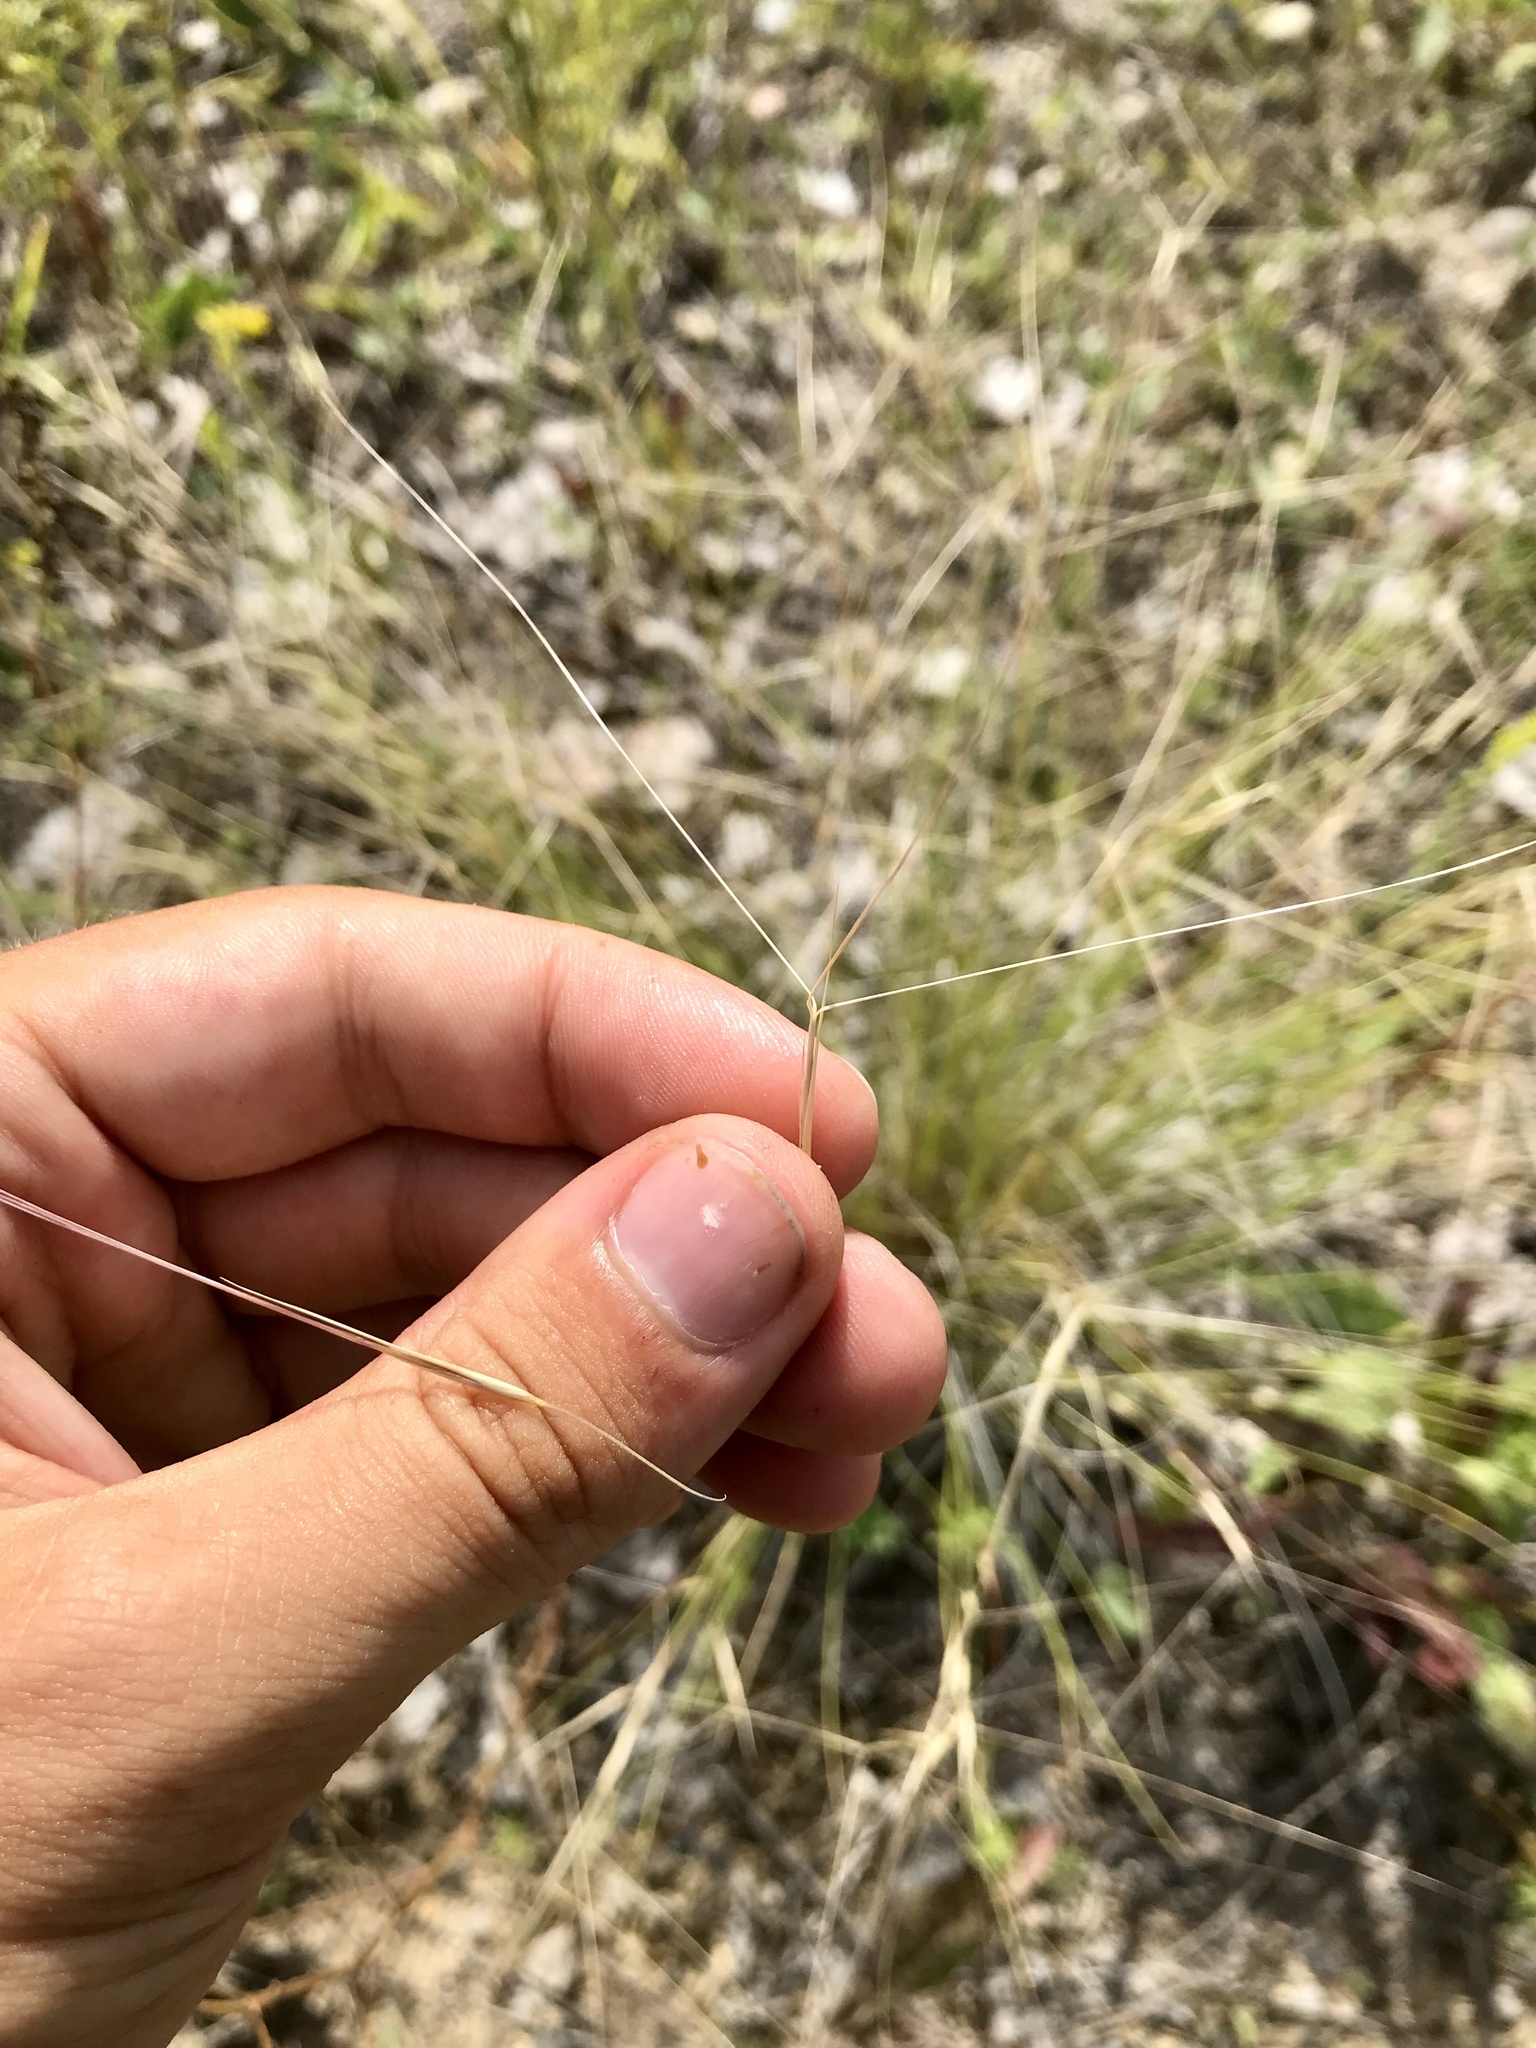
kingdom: Plantae
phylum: Tracheophyta
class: Liliopsida
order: Poales
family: Poaceae
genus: Aristida
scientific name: Aristida purpurea
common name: Purple threeawn
